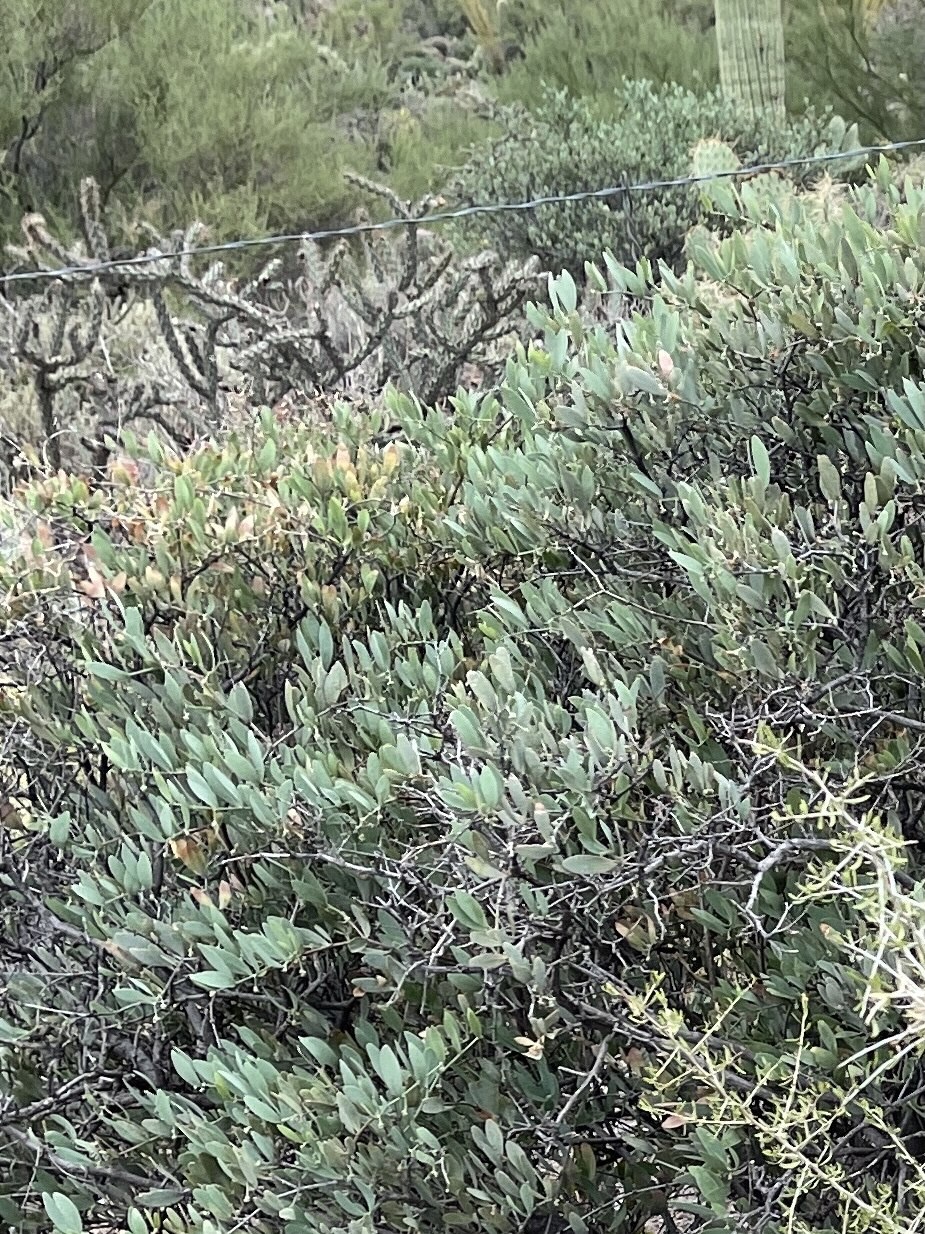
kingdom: Plantae
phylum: Tracheophyta
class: Magnoliopsida
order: Caryophyllales
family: Simmondsiaceae
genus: Simmondsia
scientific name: Simmondsia chinensis
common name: Jojoba
